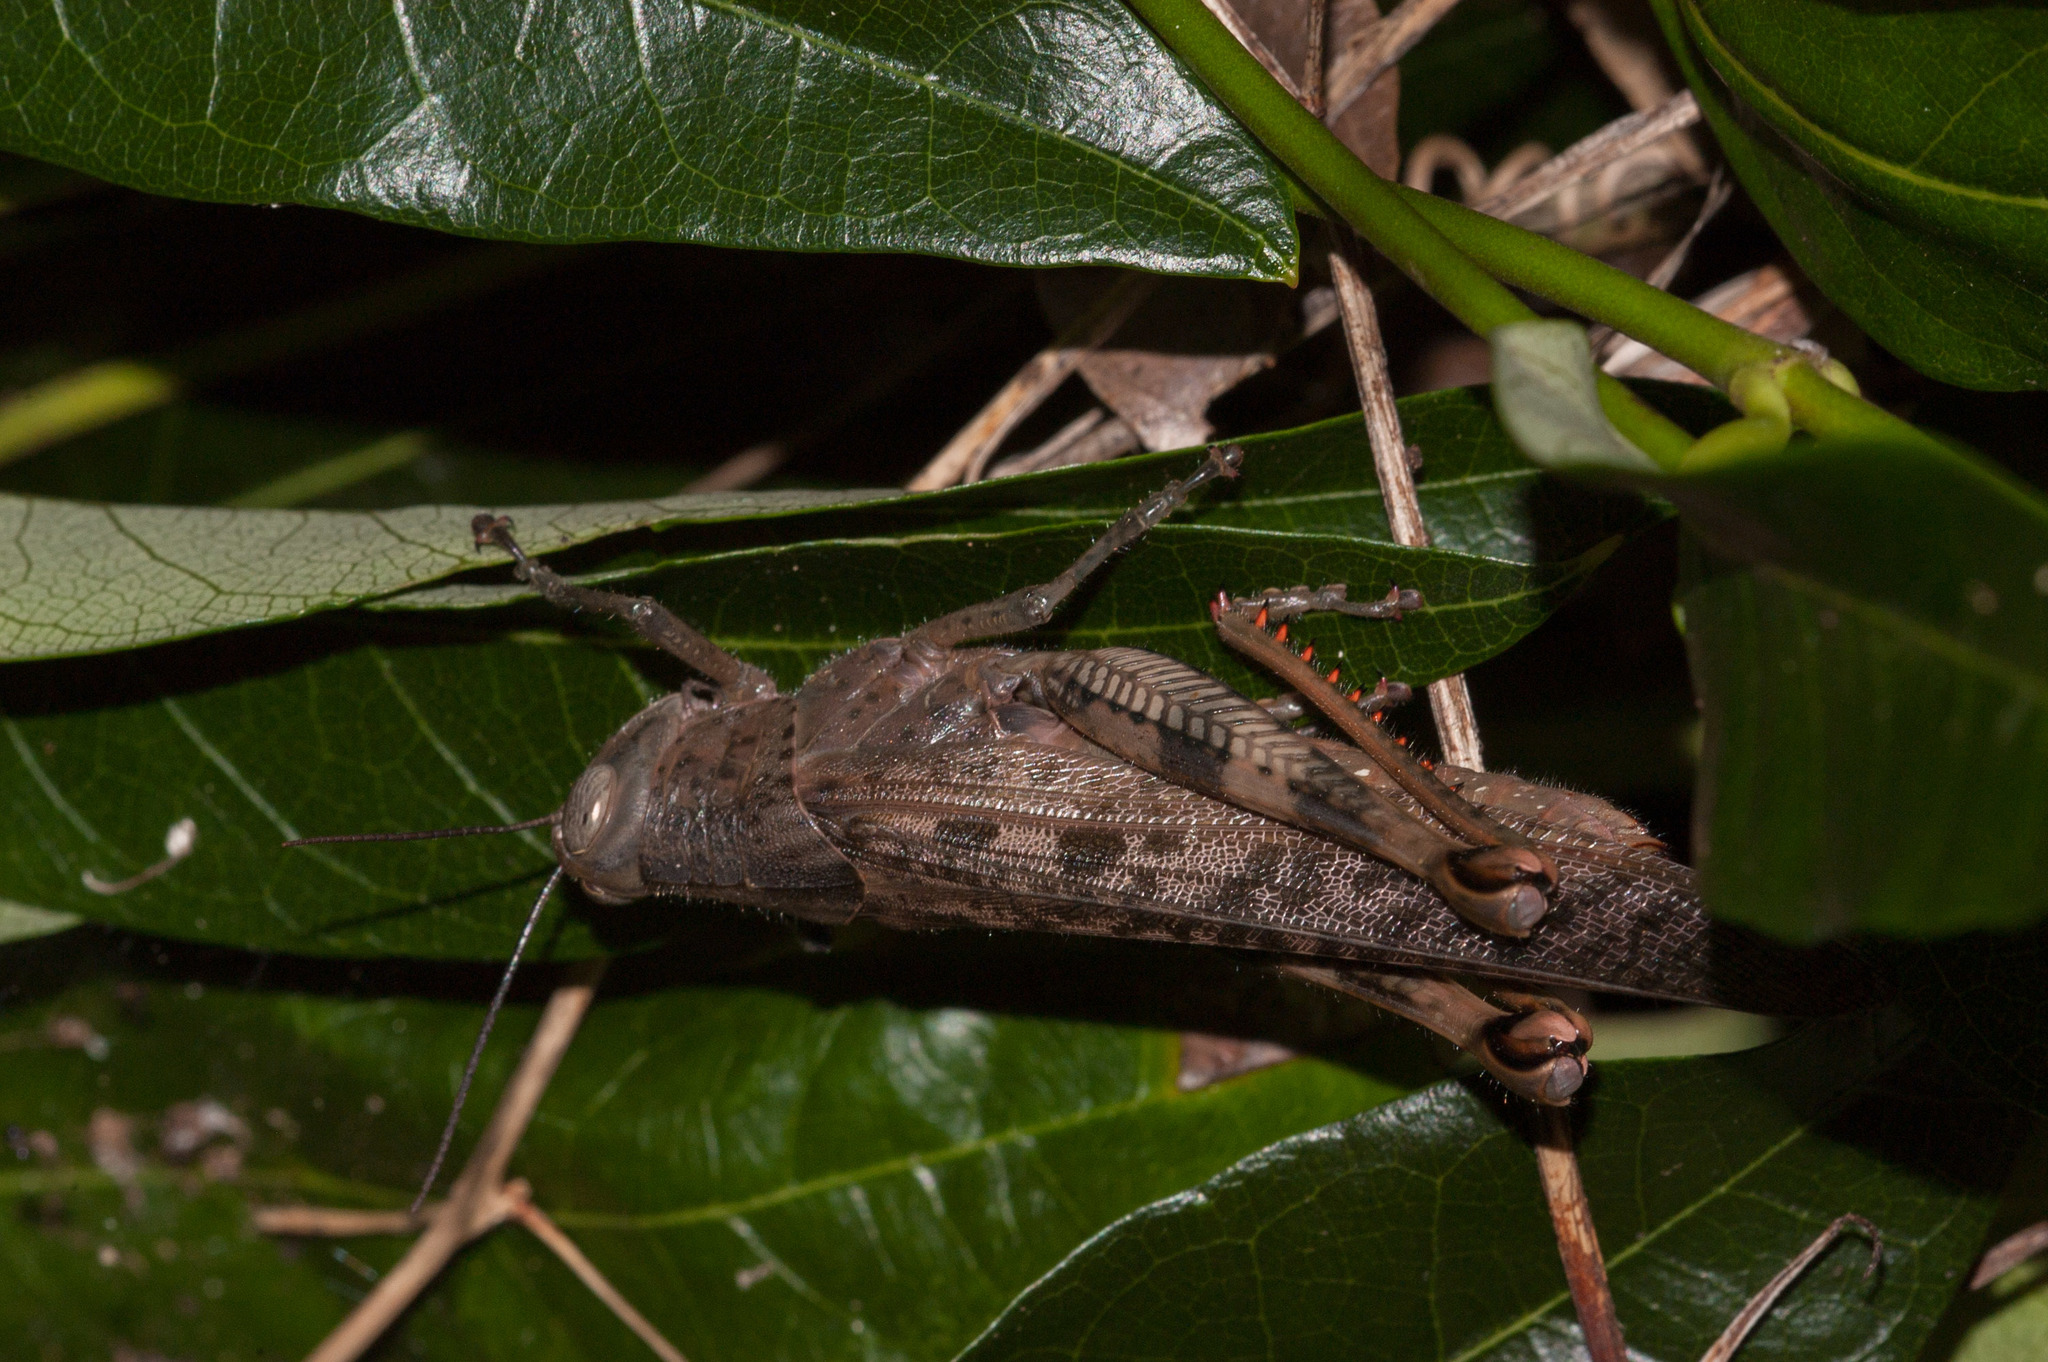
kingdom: Animalia
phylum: Arthropoda
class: Insecta
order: Orthoptera
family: Acrididae
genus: Valanga
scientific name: Valanga irregularis
